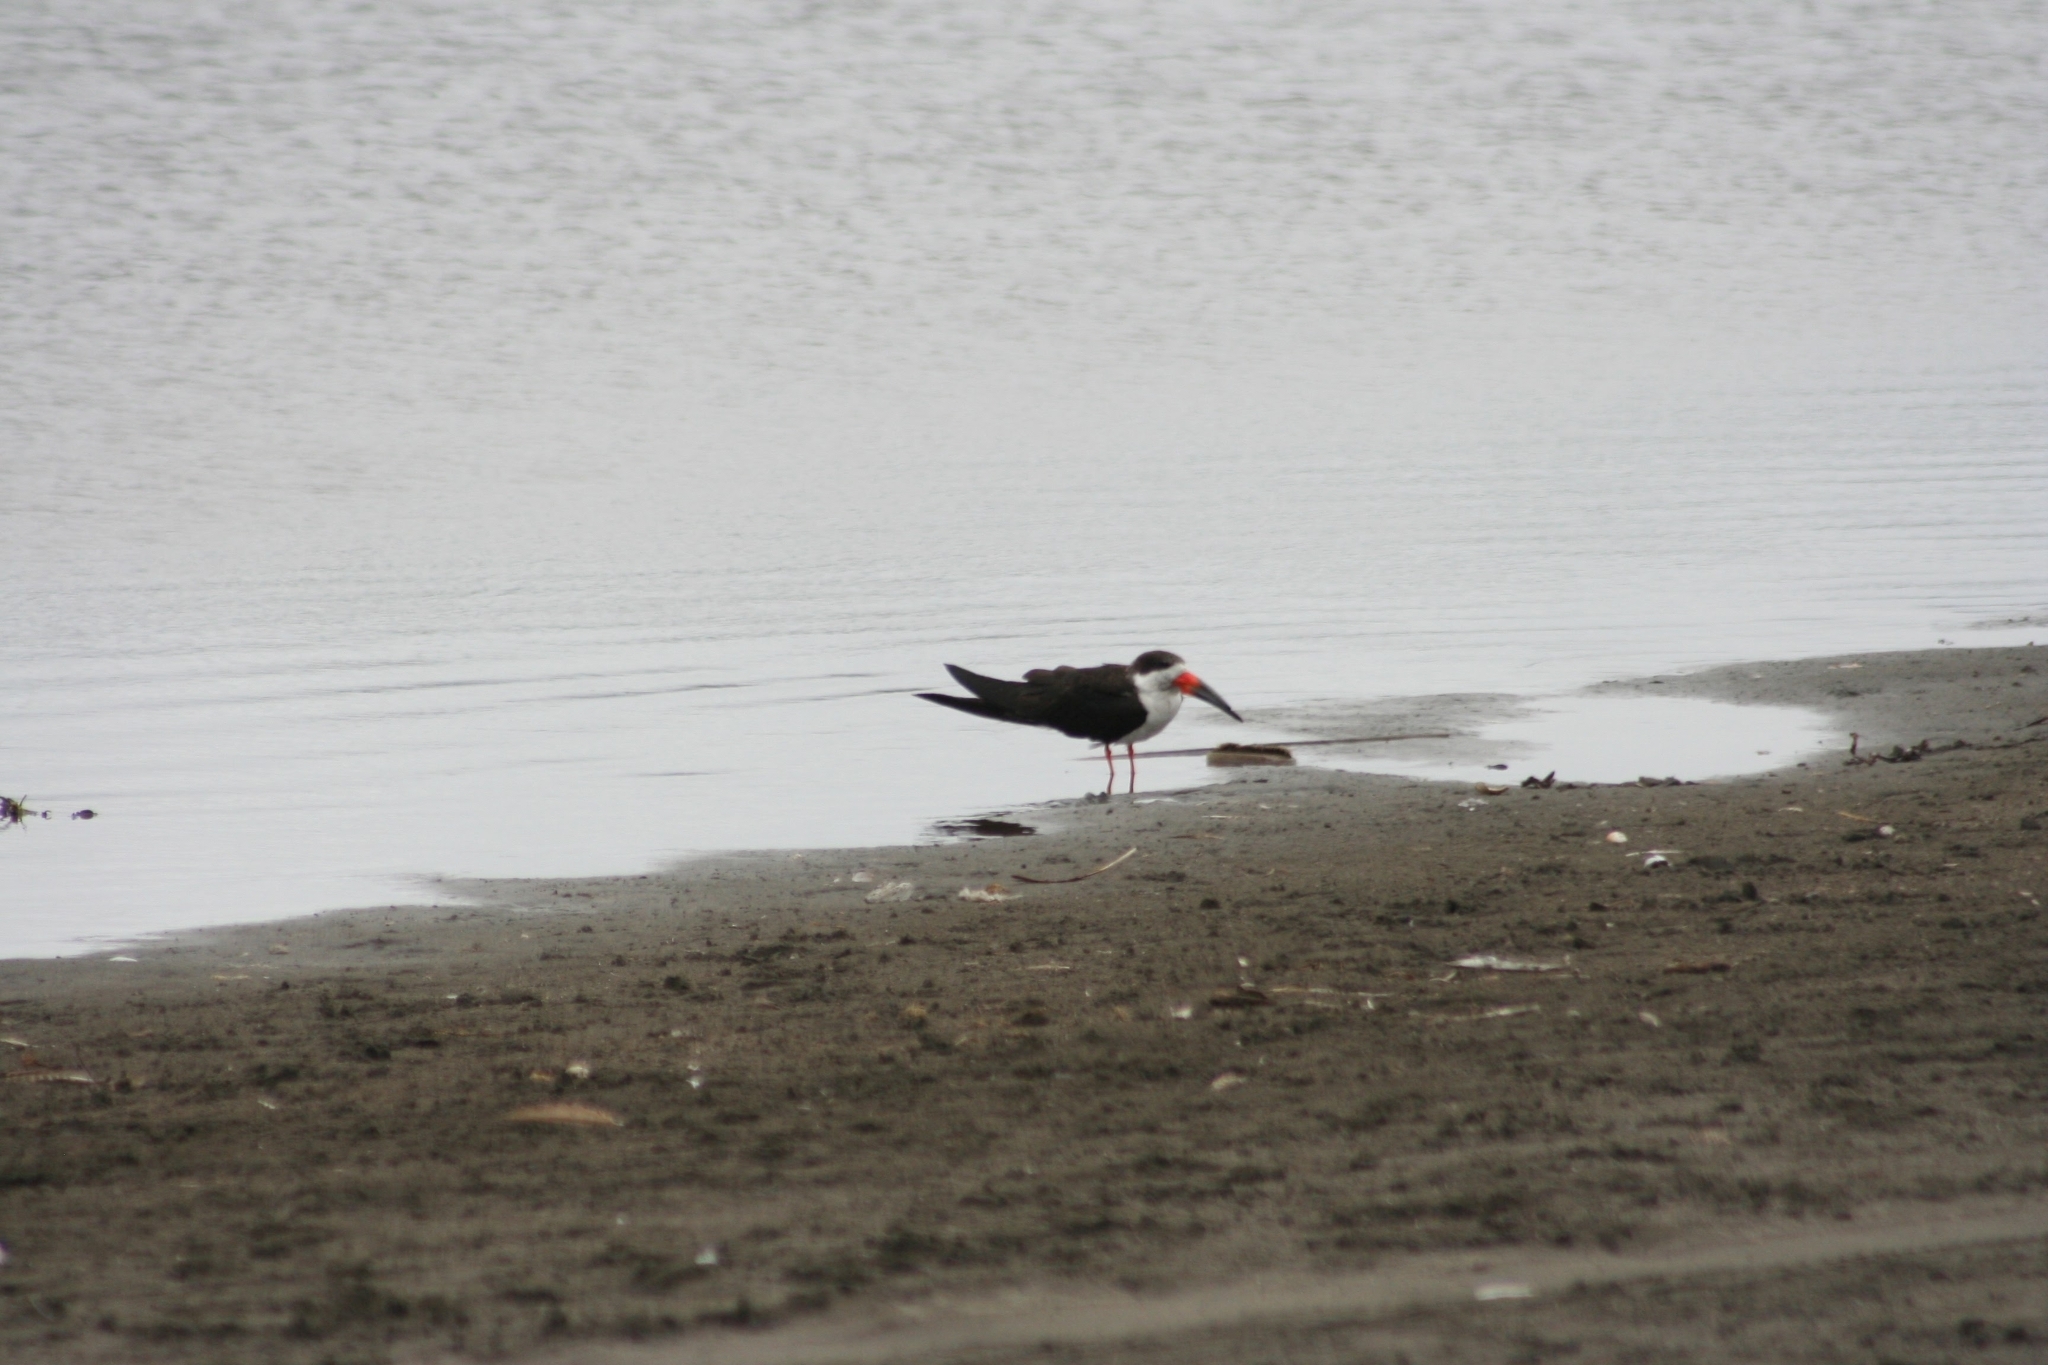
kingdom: Animalia
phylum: Chordata
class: Aves
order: Charadriiformes
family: Laridae
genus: Rynchops
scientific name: Rynchops niger
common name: Black skimmer
